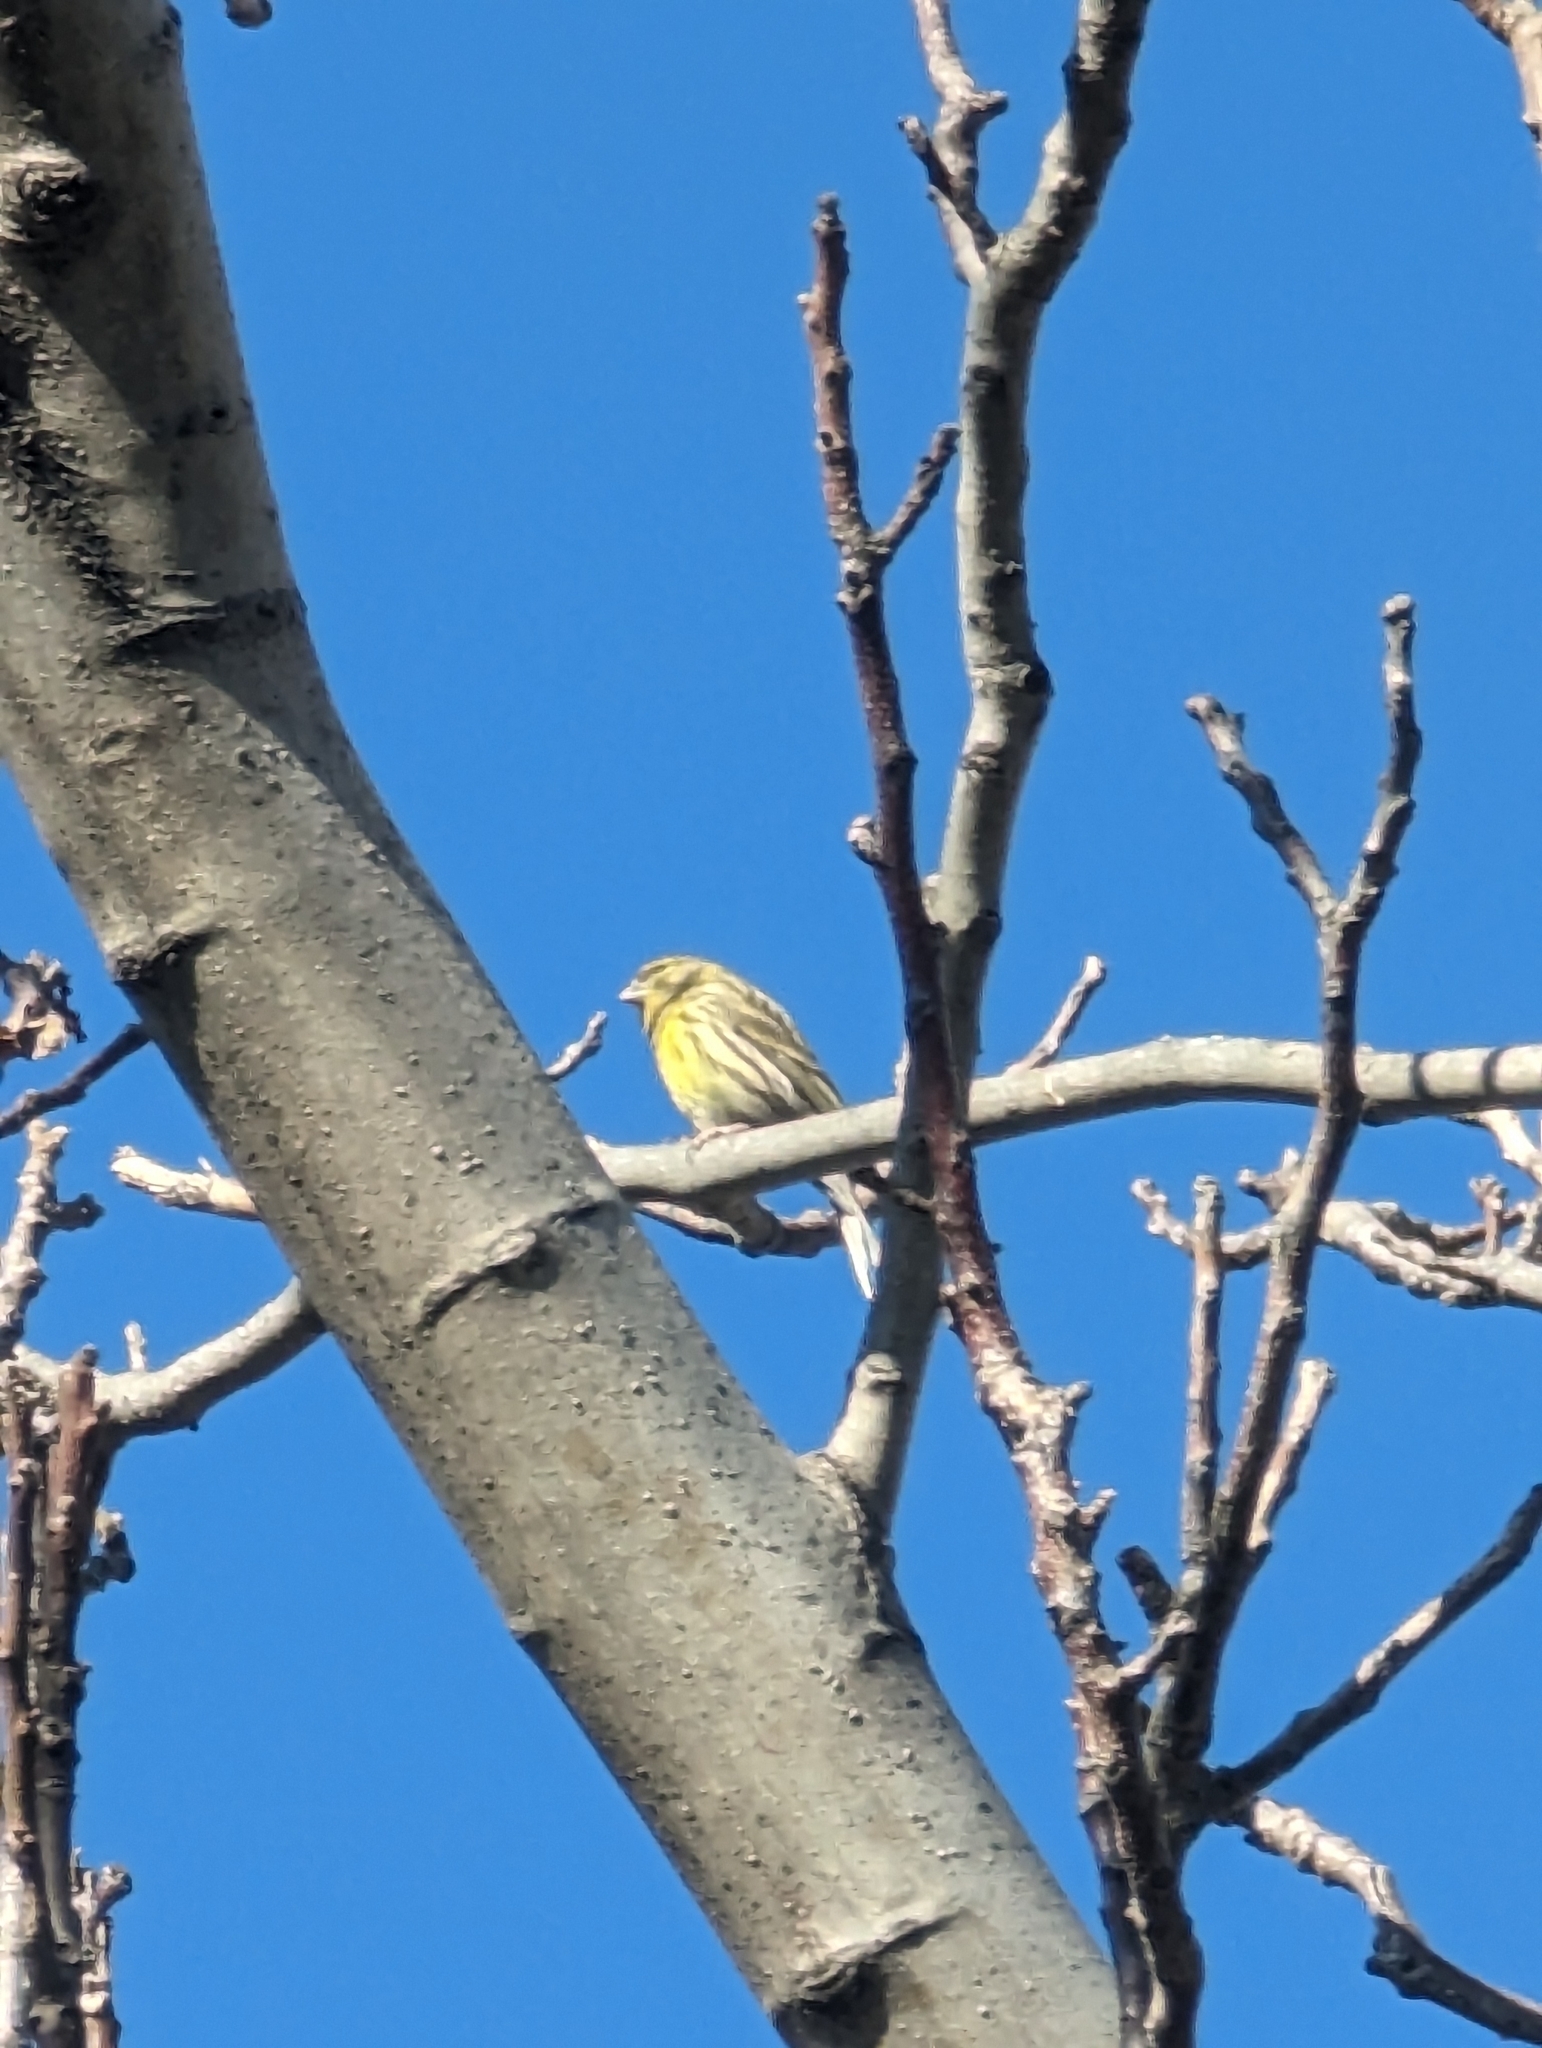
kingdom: Animalia
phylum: Chordata
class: Aves
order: Passeriformes
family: Fringillidae
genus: Serinus
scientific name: Serinus serinus
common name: European serin
